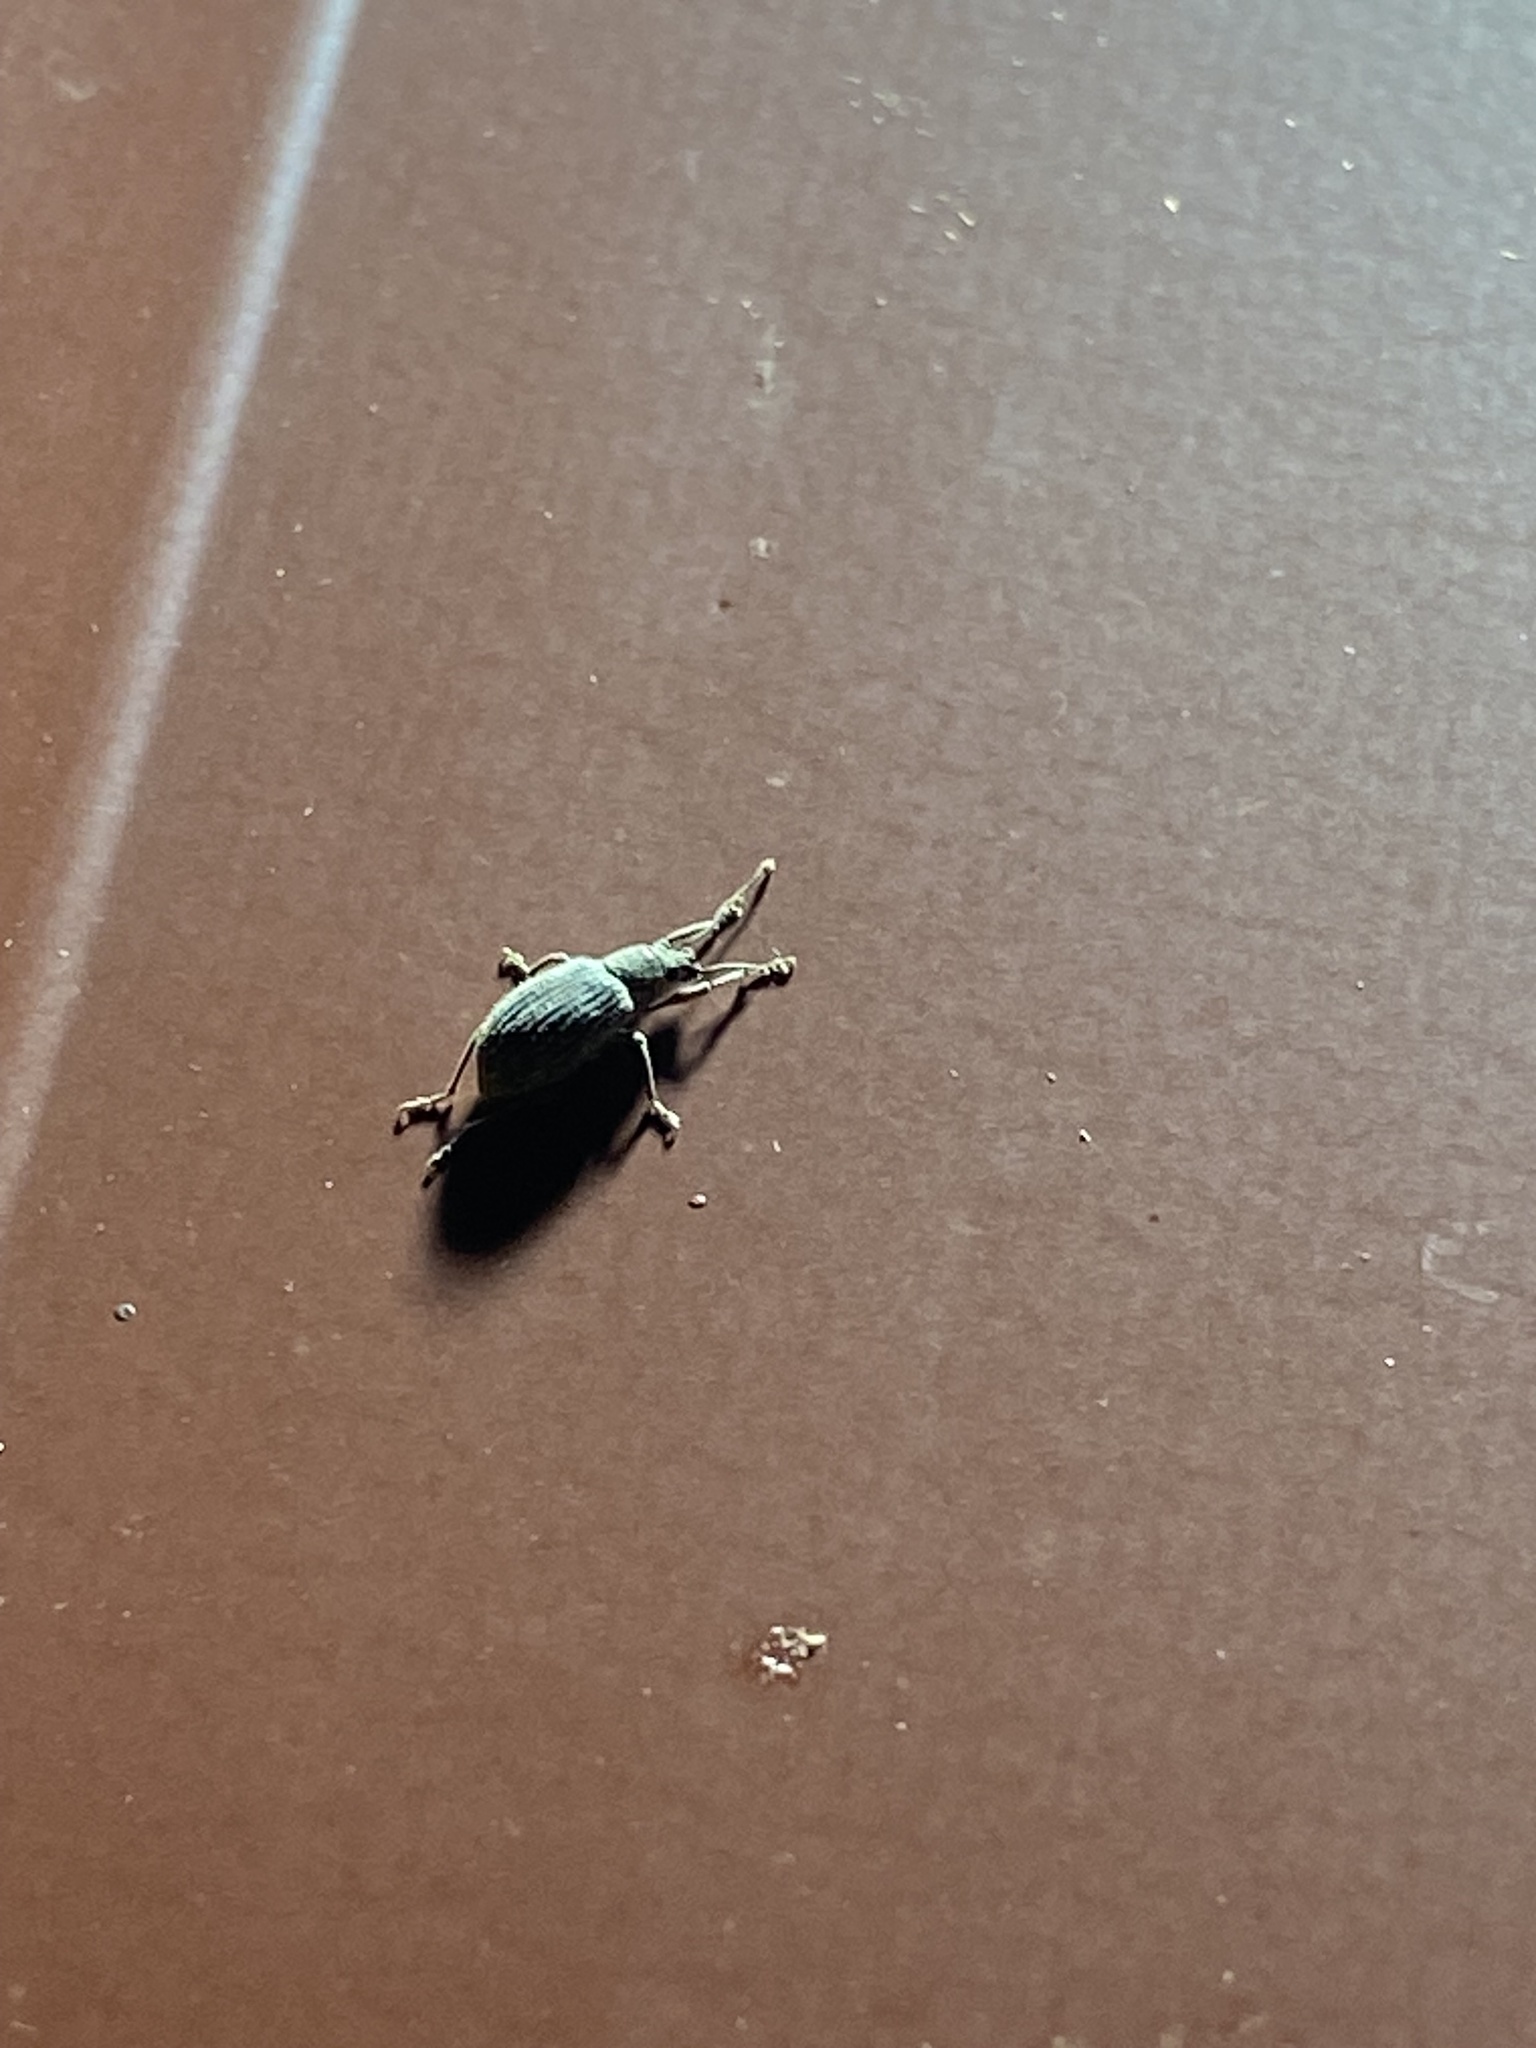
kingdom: Animalia
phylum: Arthropoda
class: Insecta
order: Coleoptera
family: Curculionidae
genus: Cyrtepistomus
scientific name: Cyrtepistomus castaneus
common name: Weevil
